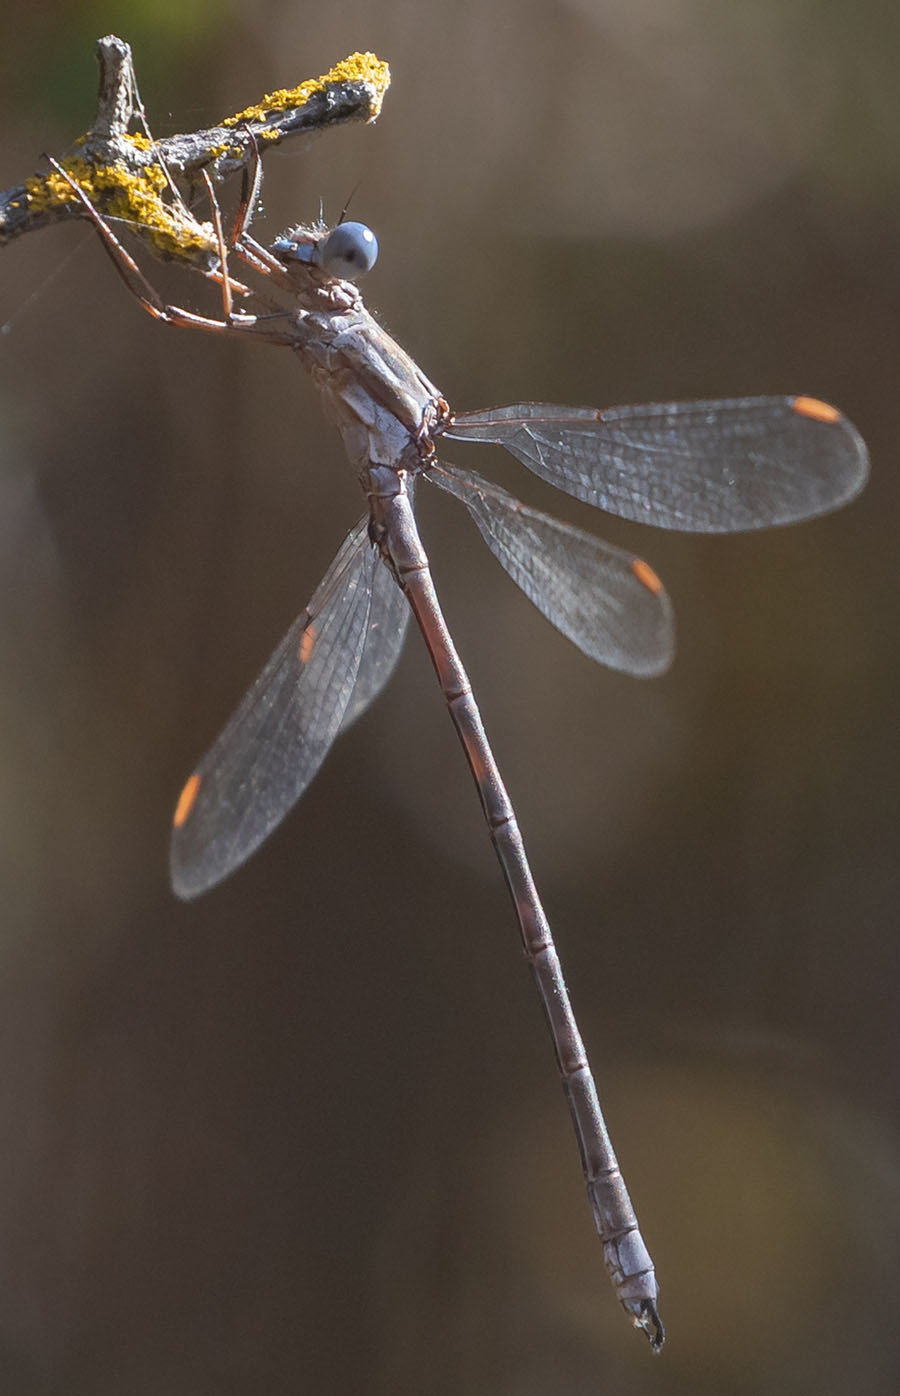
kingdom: Animalia
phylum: Arthropoda
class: Insecta
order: Odonata
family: Lestidae
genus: Archilestes
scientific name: Archilestes californicus
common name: California spreadwing
